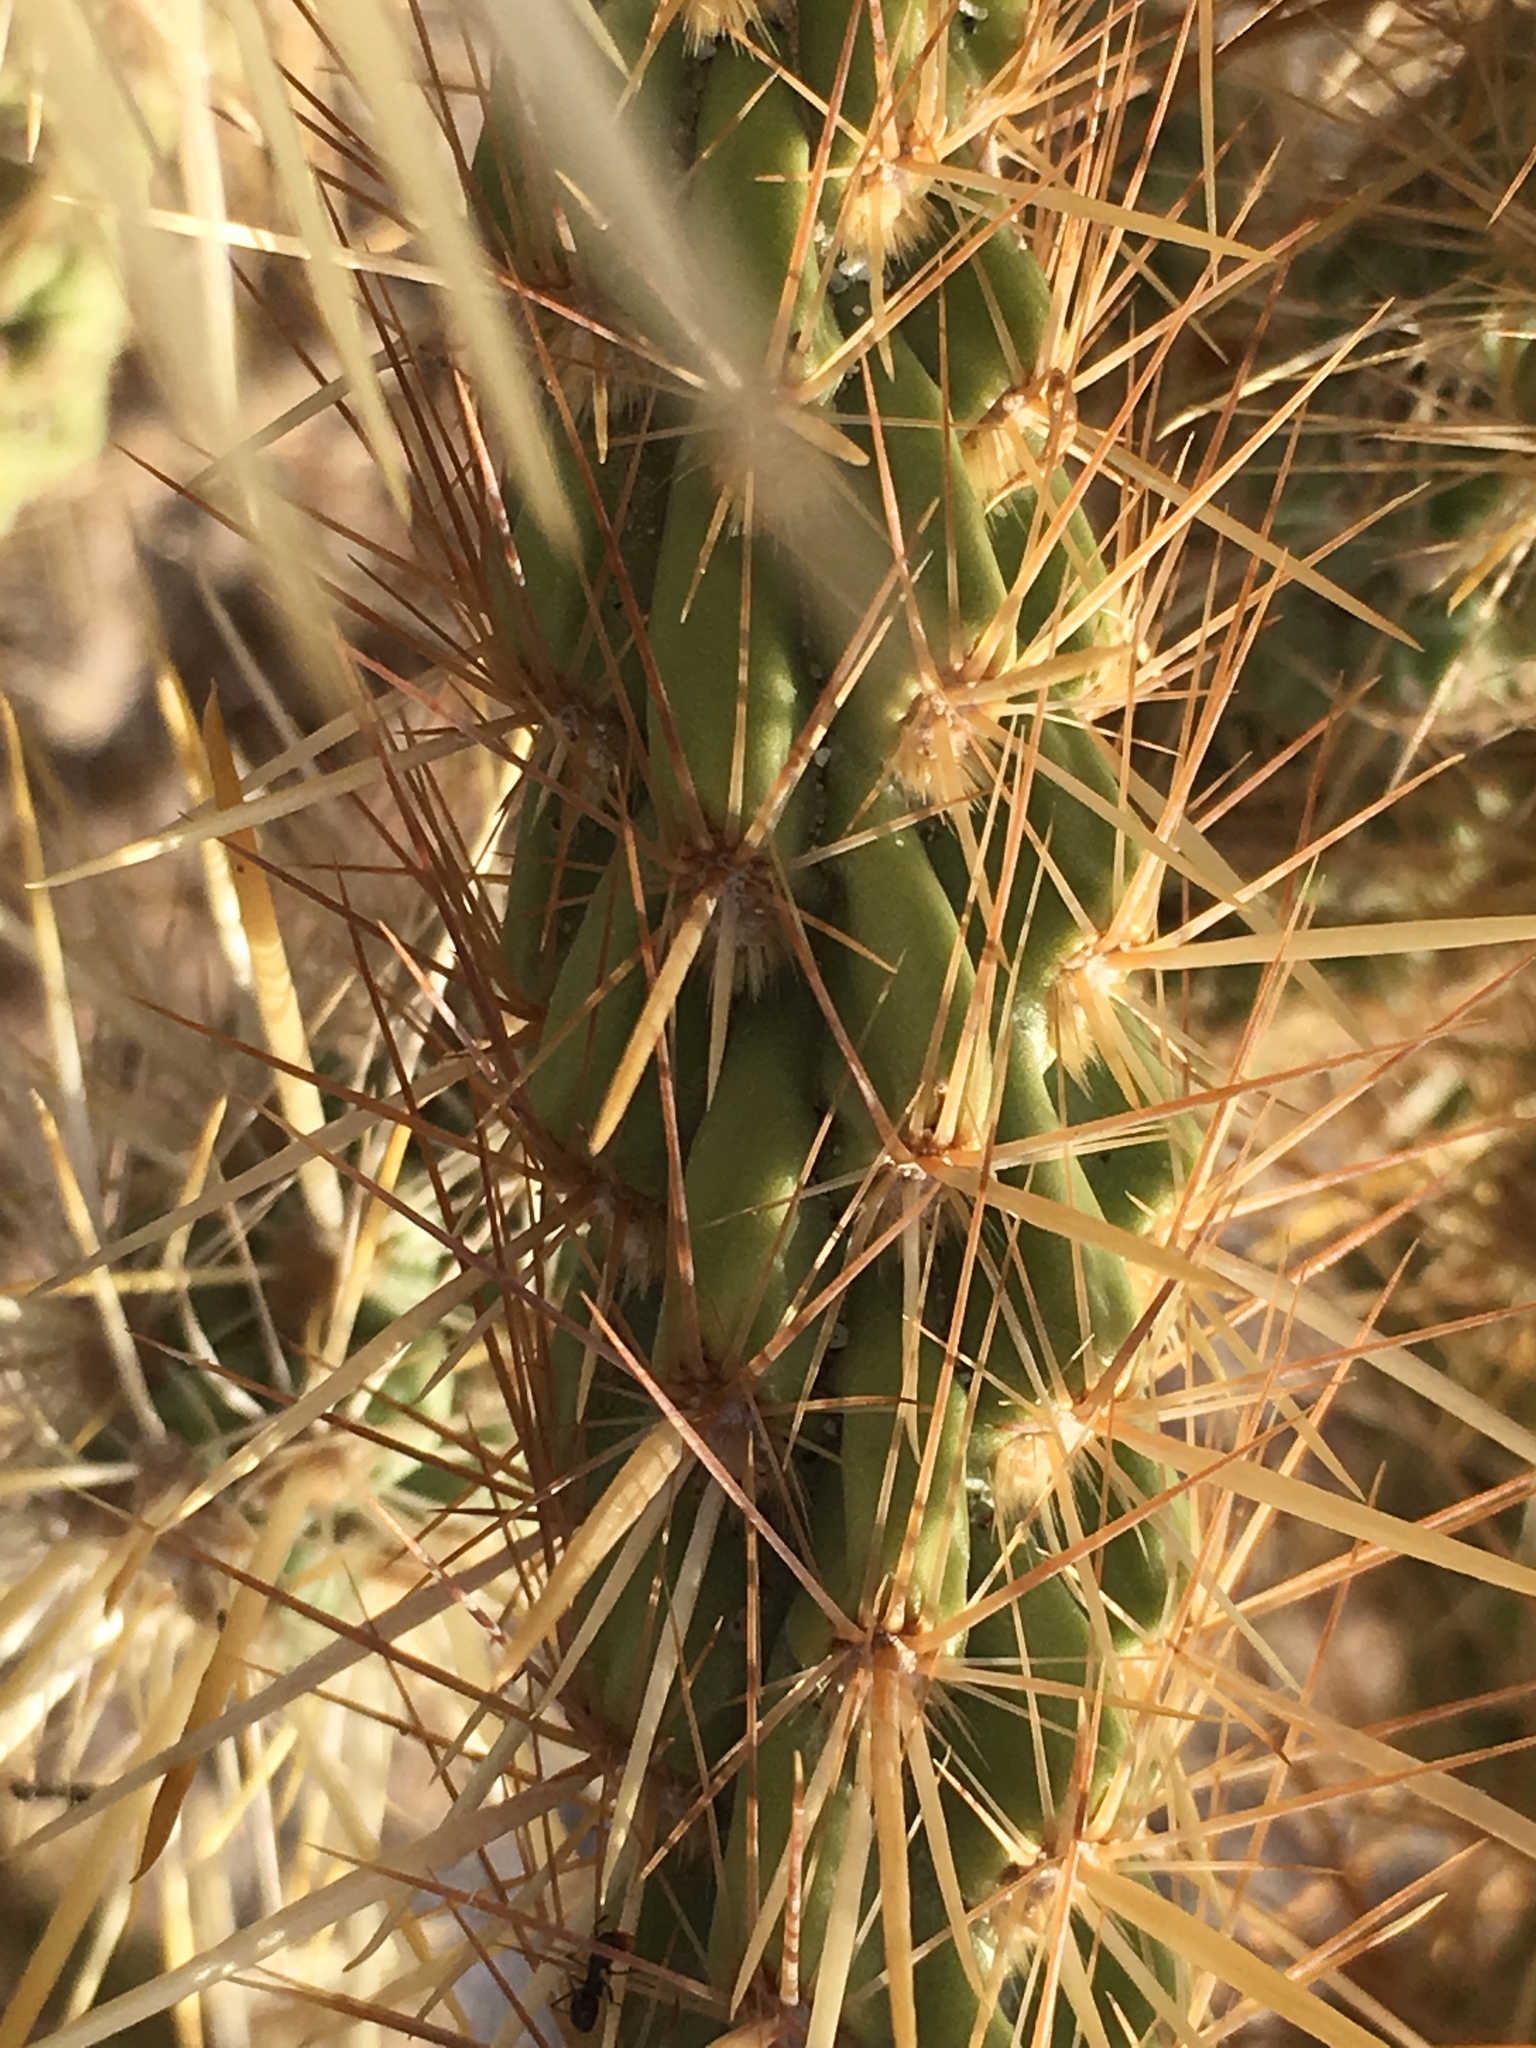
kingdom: Plantae
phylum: Tracheophyta
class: Magnoliopsida
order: Caryophyllales
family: Cactaceae
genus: Cylindropuntia
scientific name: Cylindropuntia ganderi
